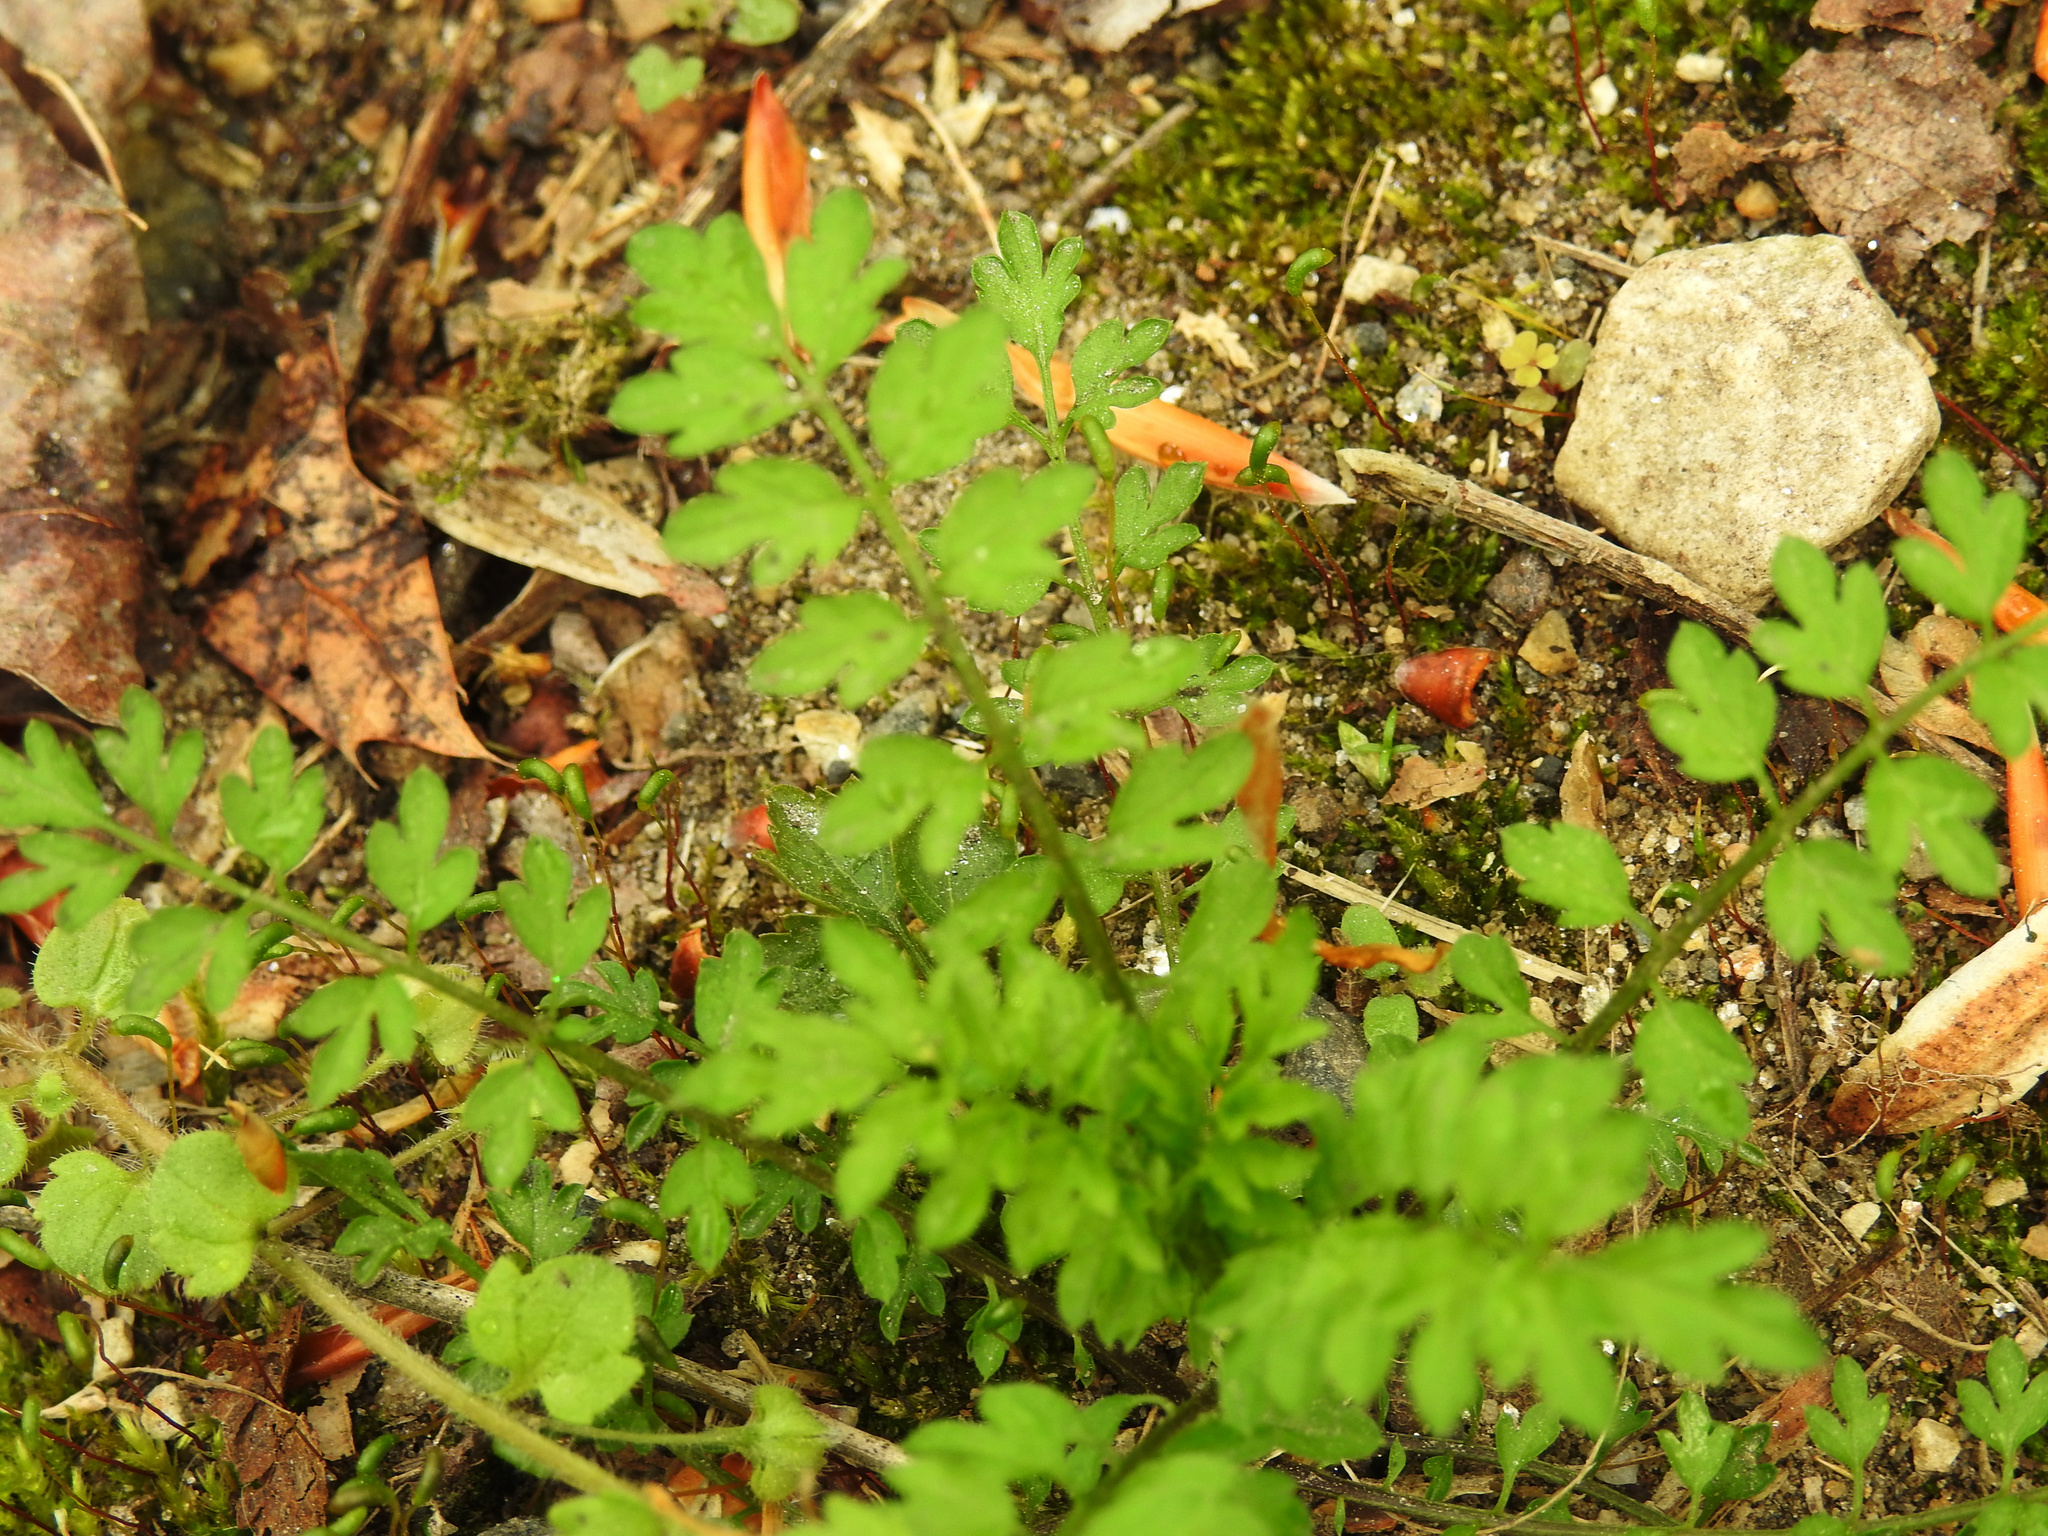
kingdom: Plantae
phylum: Tracheophyta
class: Magnoliopsida
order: Brassicales
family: Brassicaceae
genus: Cardamine
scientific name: Cardamine impatiens
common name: Narrow-leaved bitter-cress
